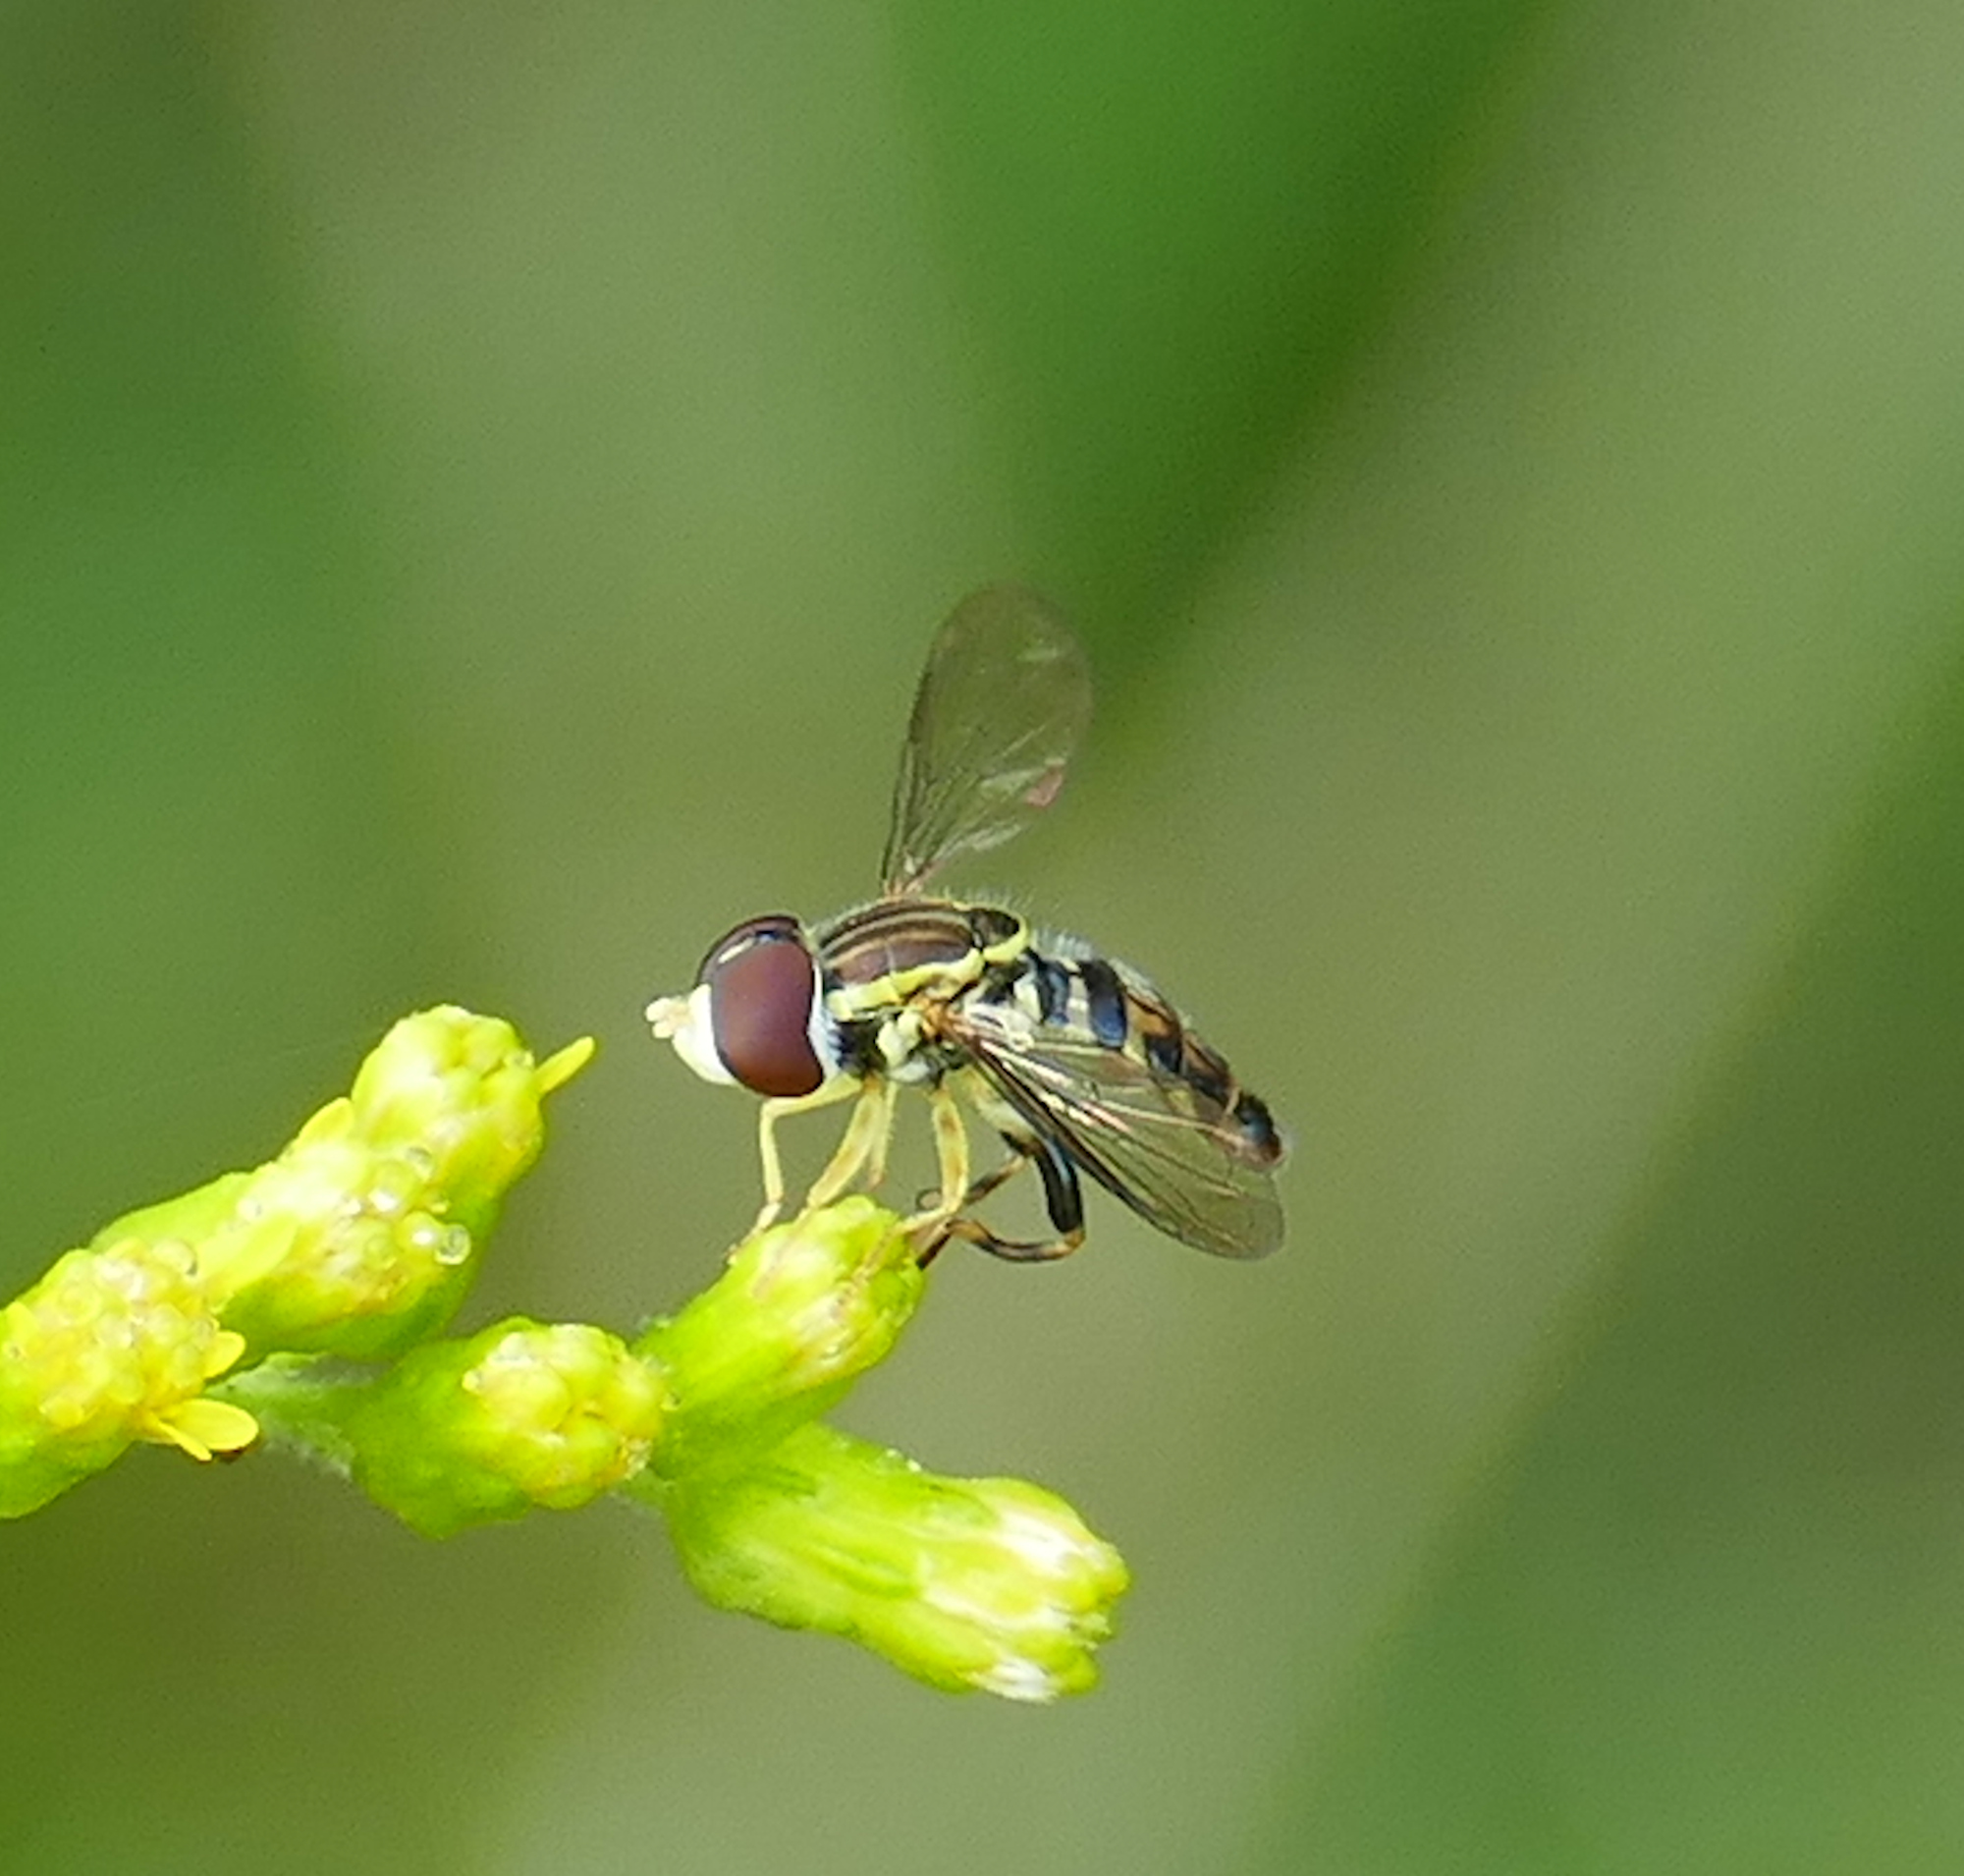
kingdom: Animalia
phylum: Arthropoda
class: Insecta
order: Diptera
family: Syrphidae
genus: Toxomerus
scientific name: Toxomerus geminatus
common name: Eastern calligrapher
